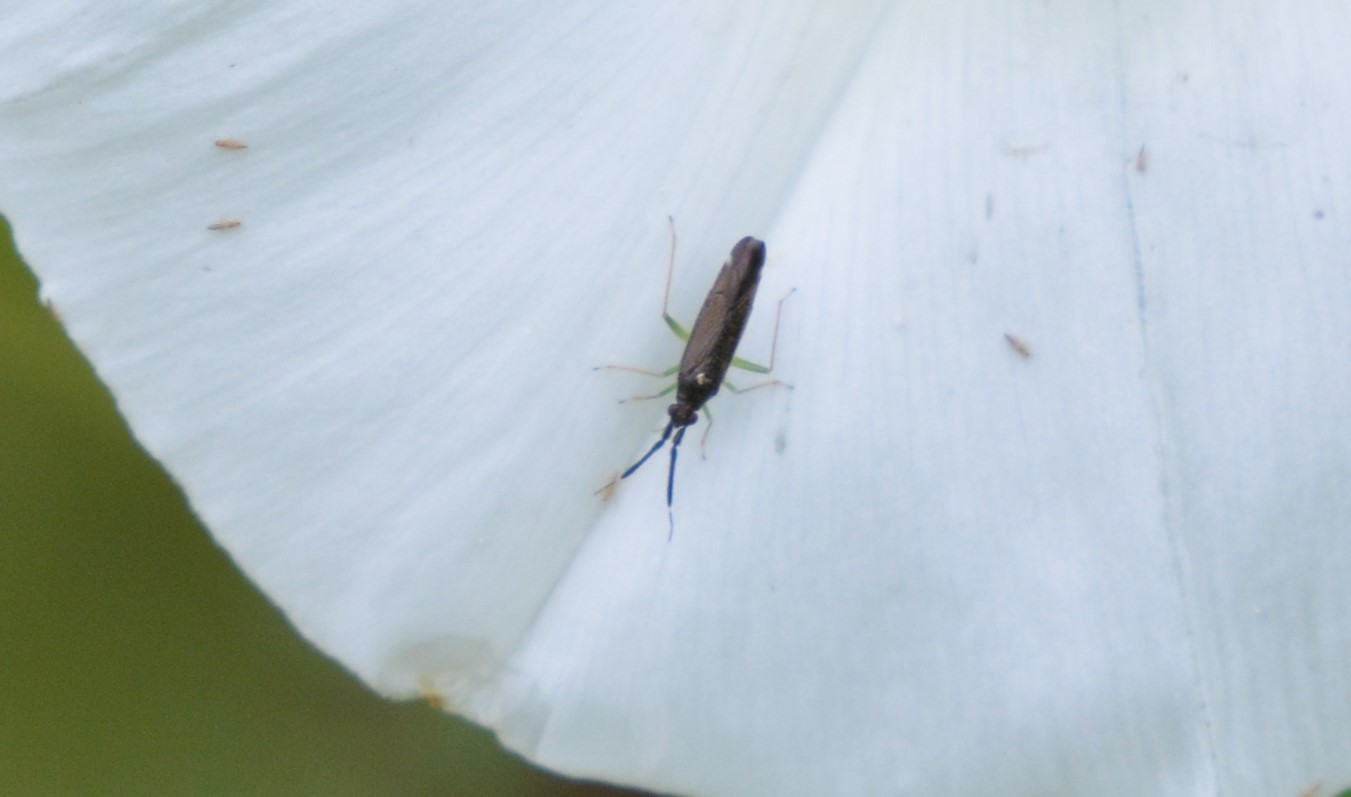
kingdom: Animalia
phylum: Arthropoda
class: Insecta
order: Hemiptera
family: Miridae
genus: Heterotoma
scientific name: Heterotoma planicornis
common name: Plant bug
